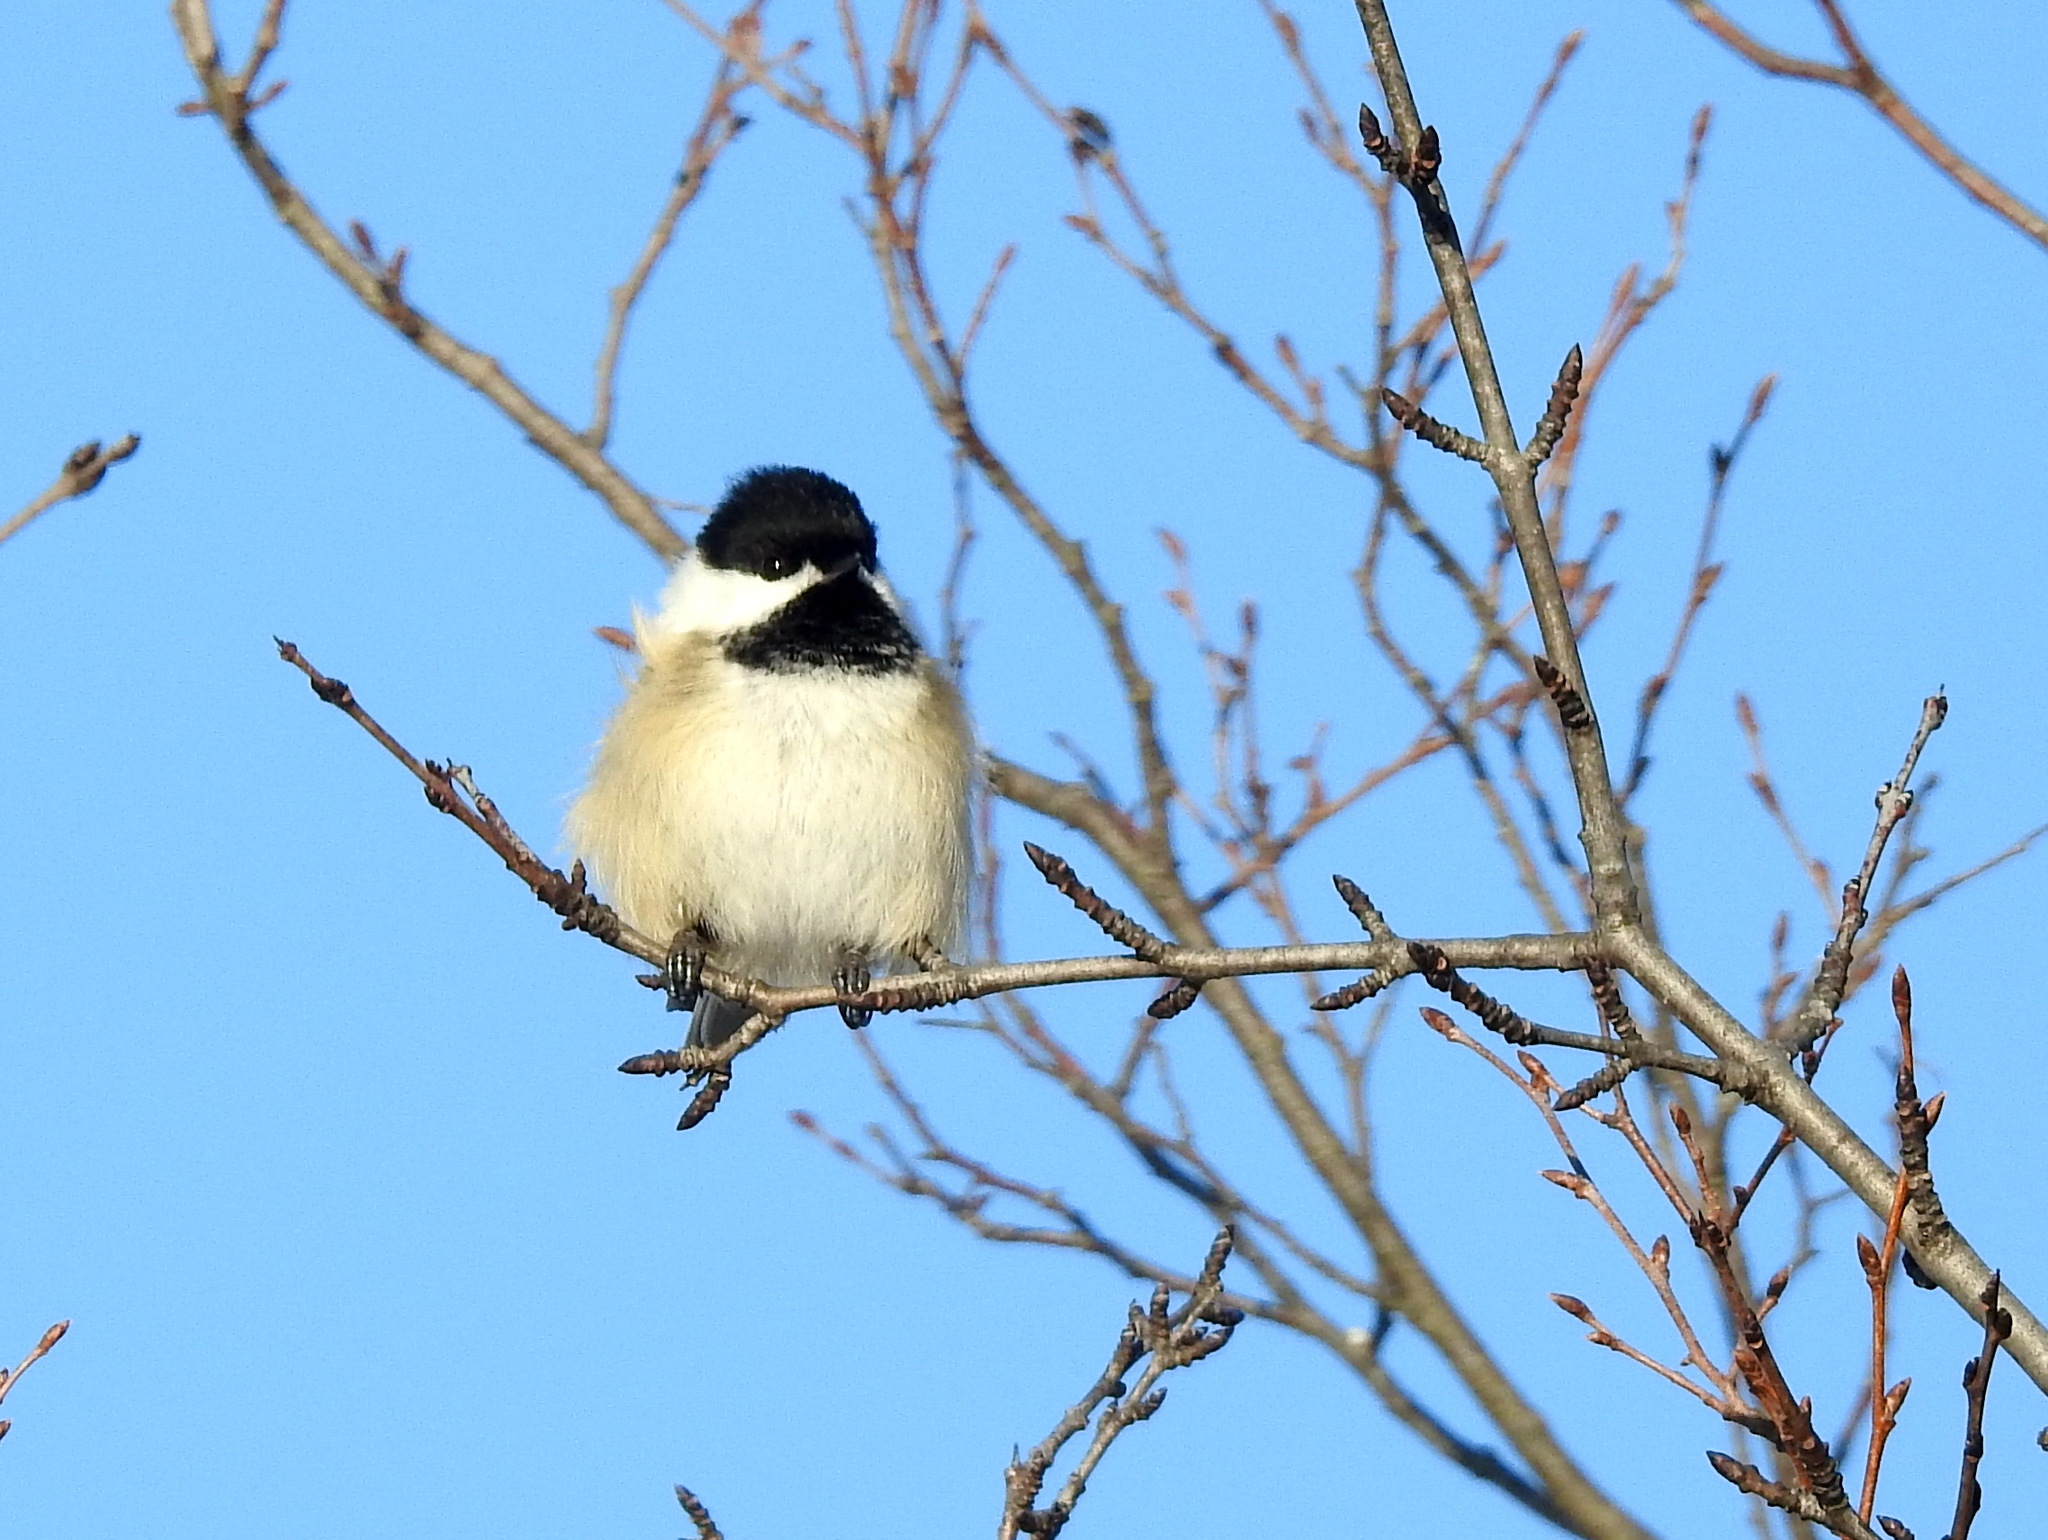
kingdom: Animalia
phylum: Chordata
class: Aves
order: Passeriformes
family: Paridae
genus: Poecile
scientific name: Poecile atricapillus
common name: Black-capped chickadee
